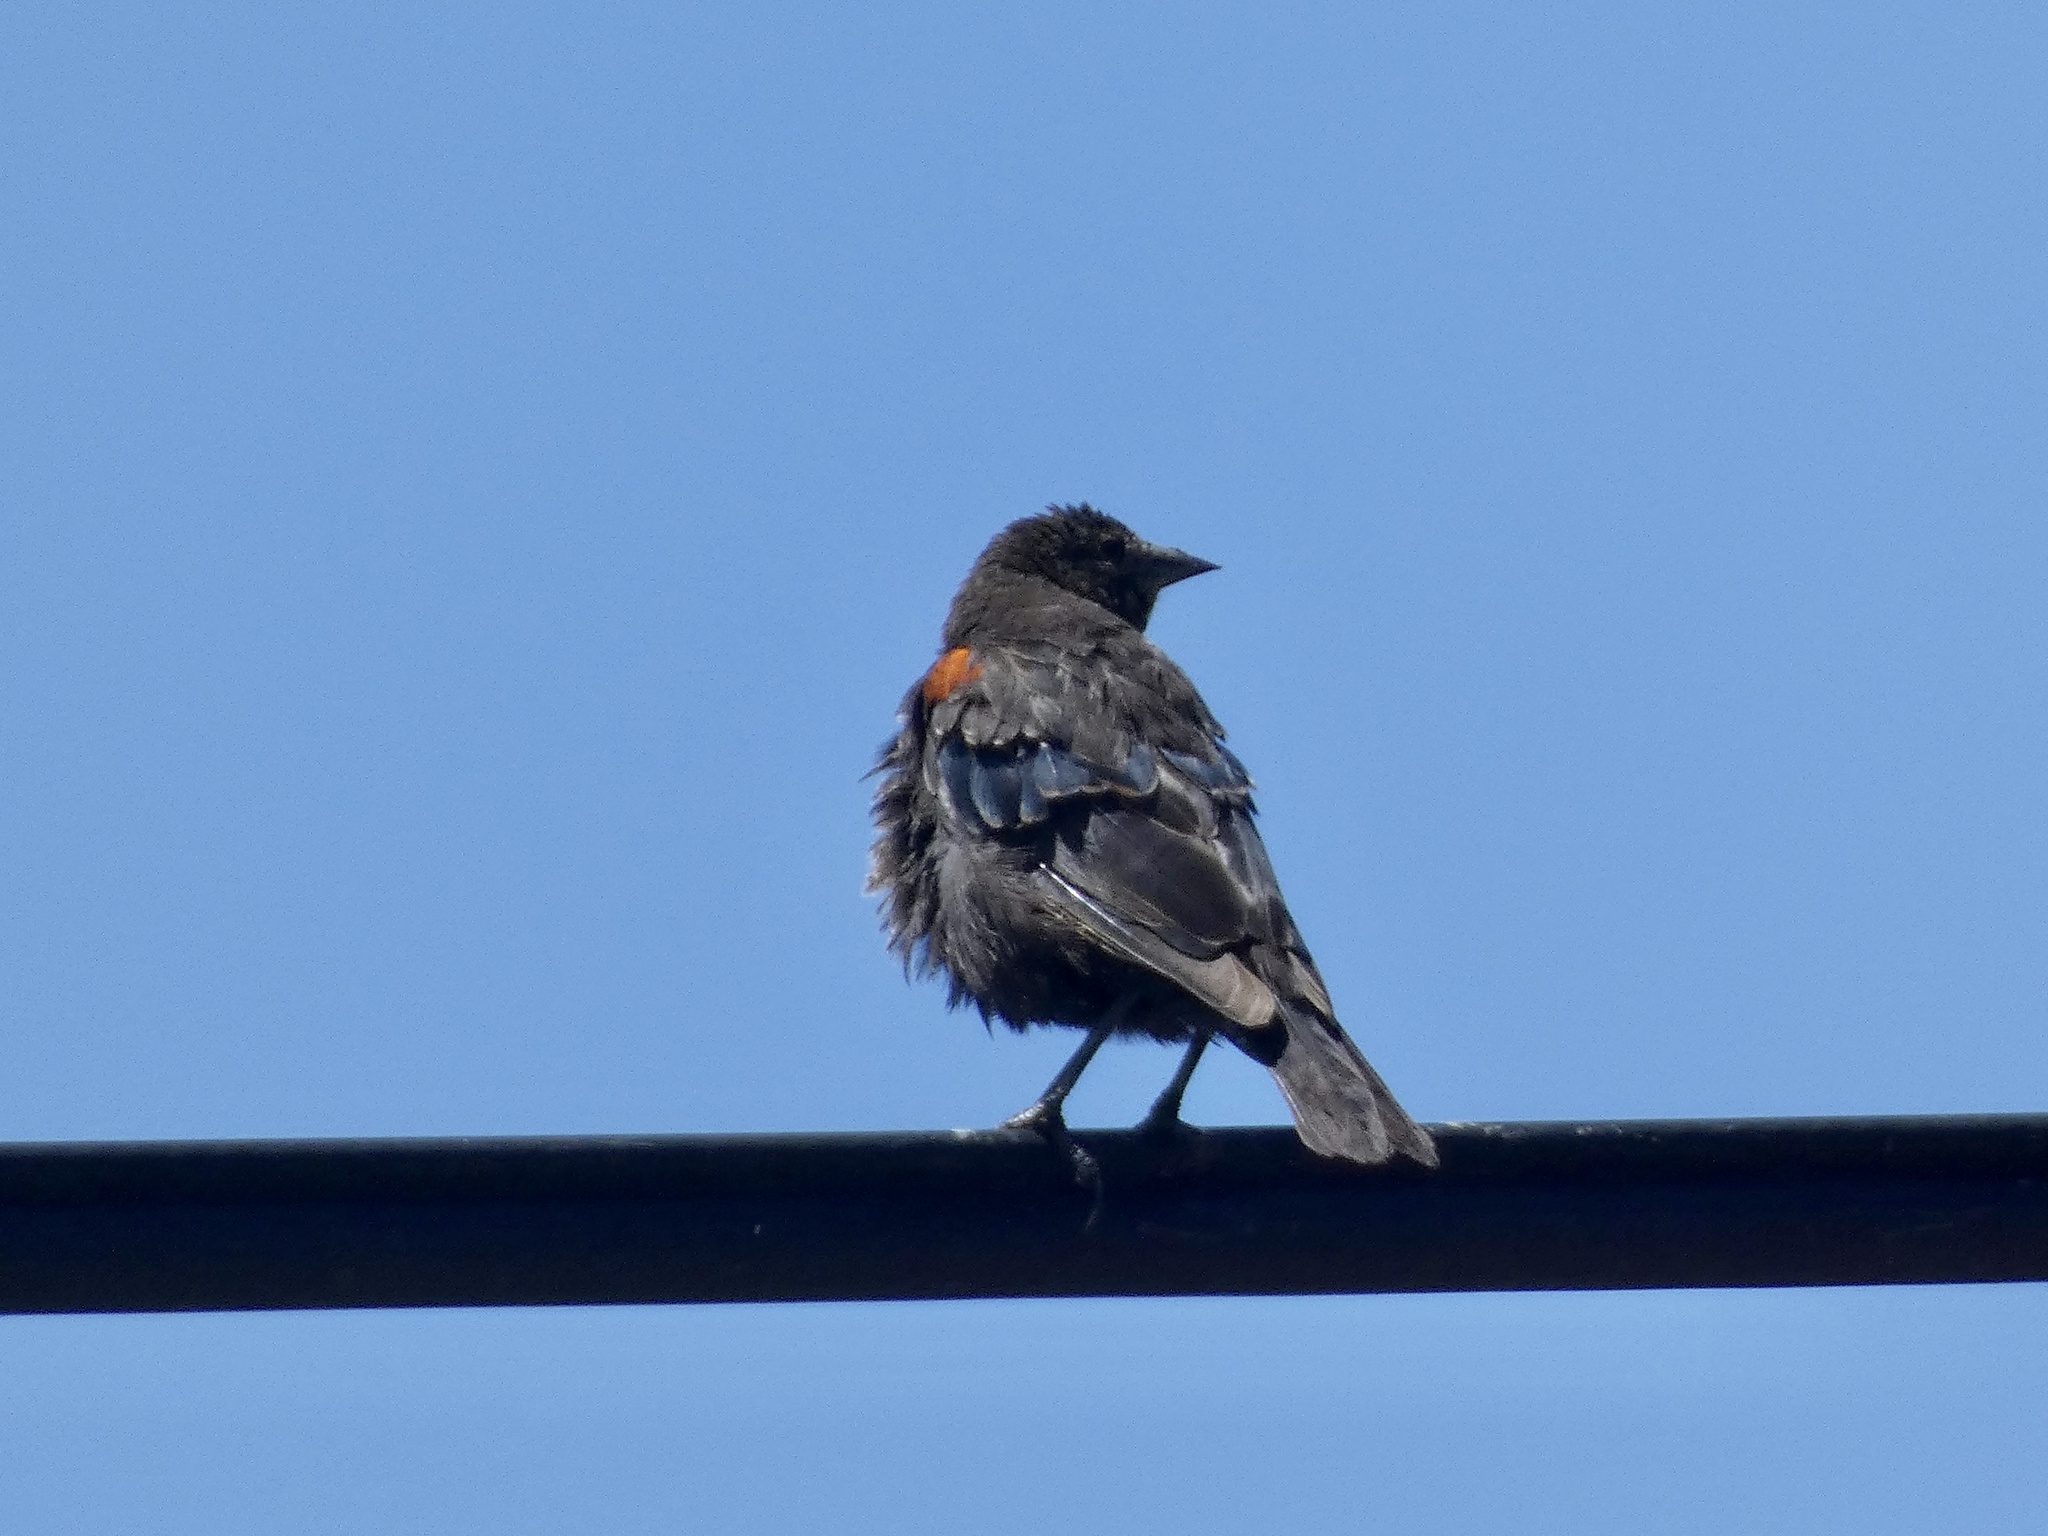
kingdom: Animalia
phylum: Chordata
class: Aves
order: Passeriformes
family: Icteridae
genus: Agelaius
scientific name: Agelaius phoeniceus
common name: Red-winged blackbird
